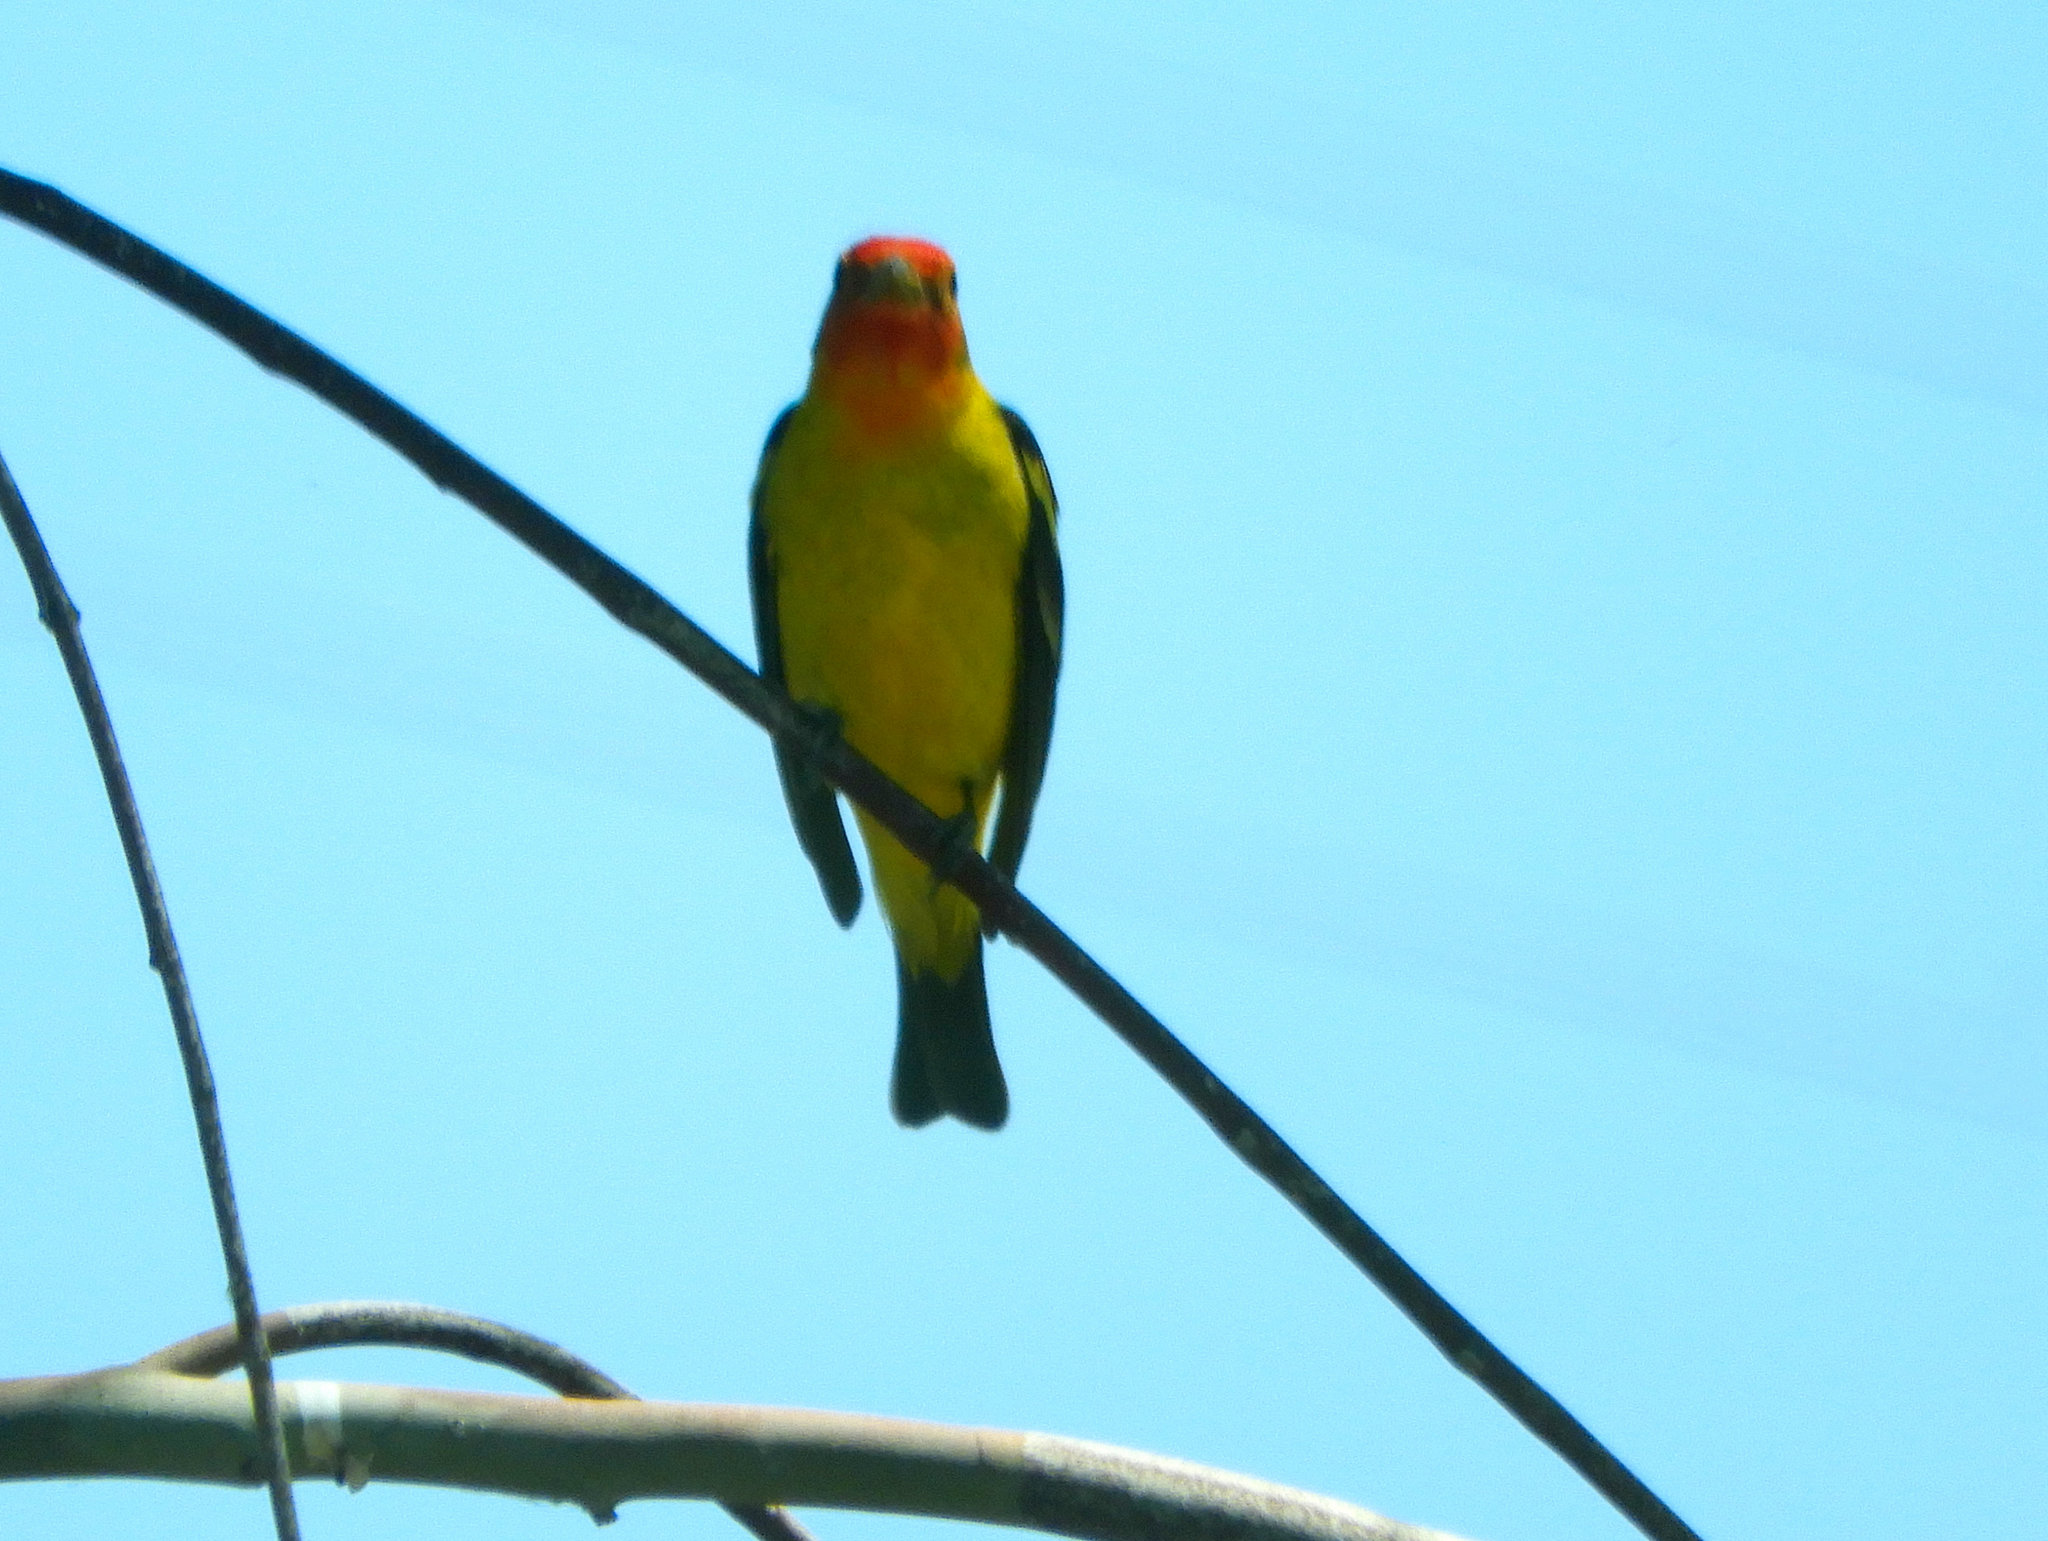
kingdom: Animalia
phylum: Chordata
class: Aves
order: Passeriformes
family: Cardinalidae
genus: Piranga
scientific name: Piranga ludoviciana
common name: Western tanager
